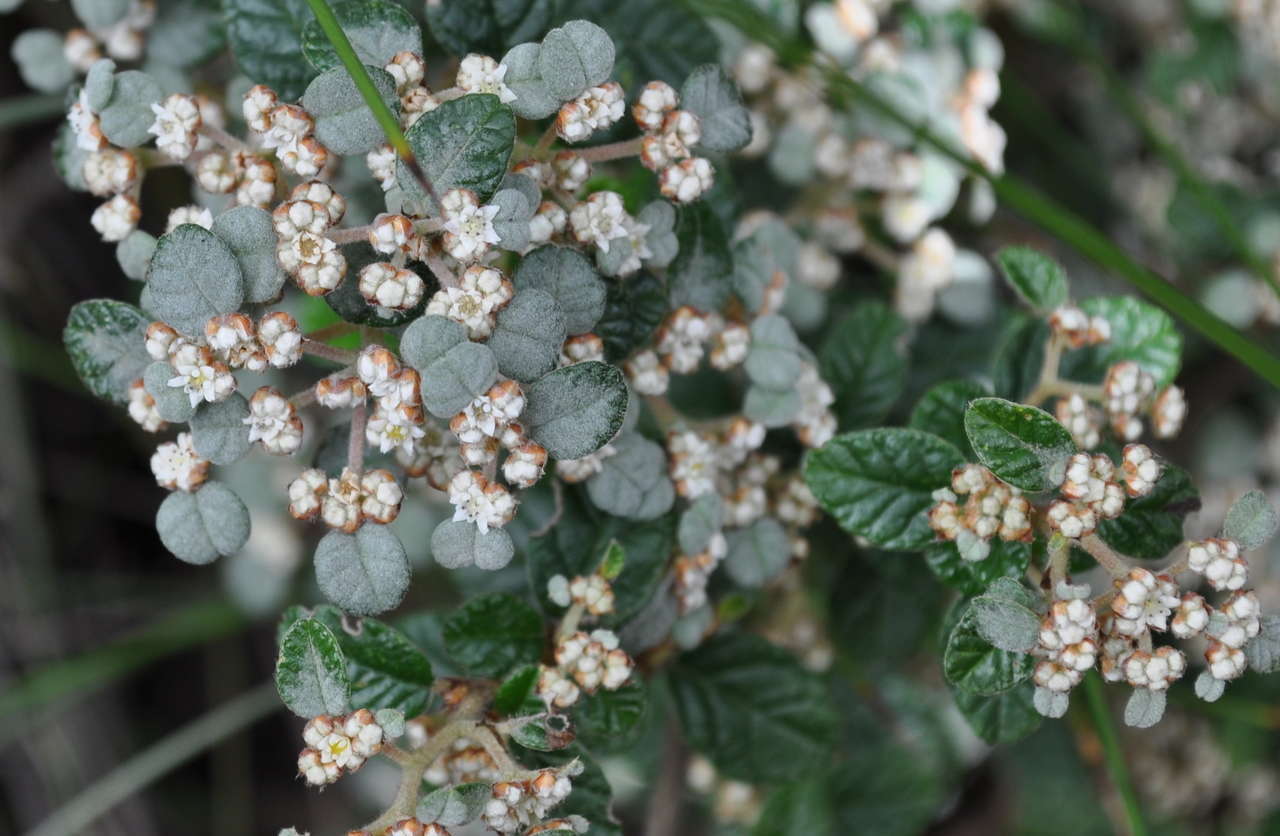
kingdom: Plantae
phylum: Tracheophyta
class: Magnoliopsida
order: Rosales
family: Rhamnaceae
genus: Spyridium
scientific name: Spyridium parvifolium
